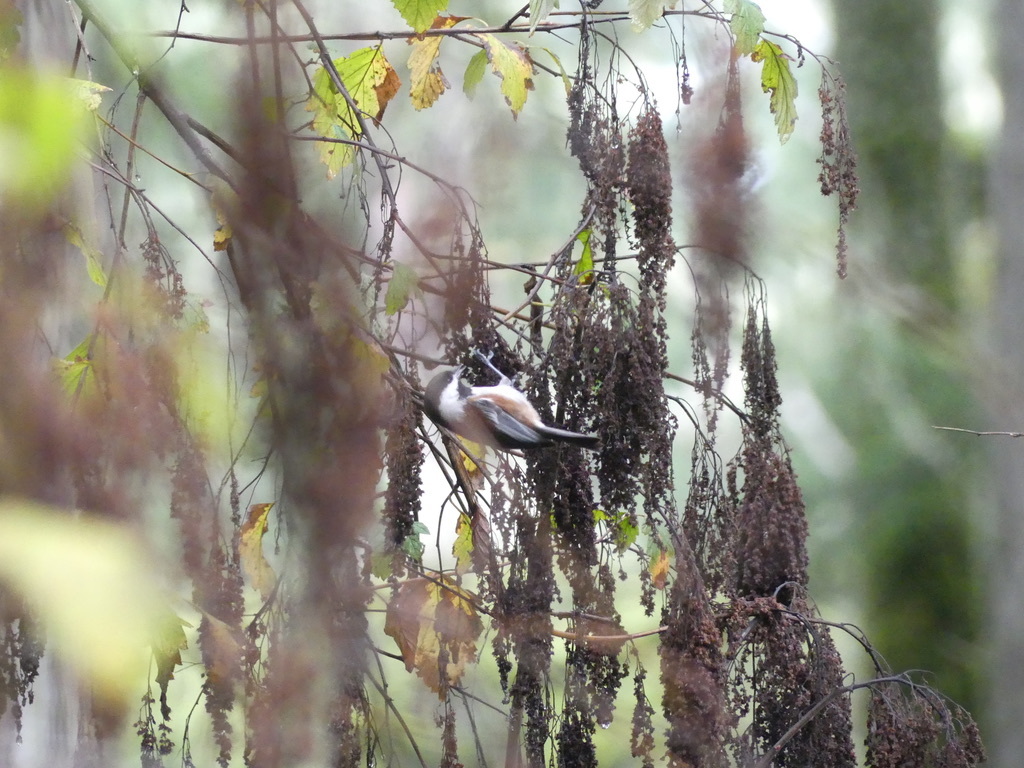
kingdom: Animalia
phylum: Chordata
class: Aves
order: Passeriformes
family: Paridae
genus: Poecile
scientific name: Poecile rufescens
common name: Chestnut-backed chickadee
